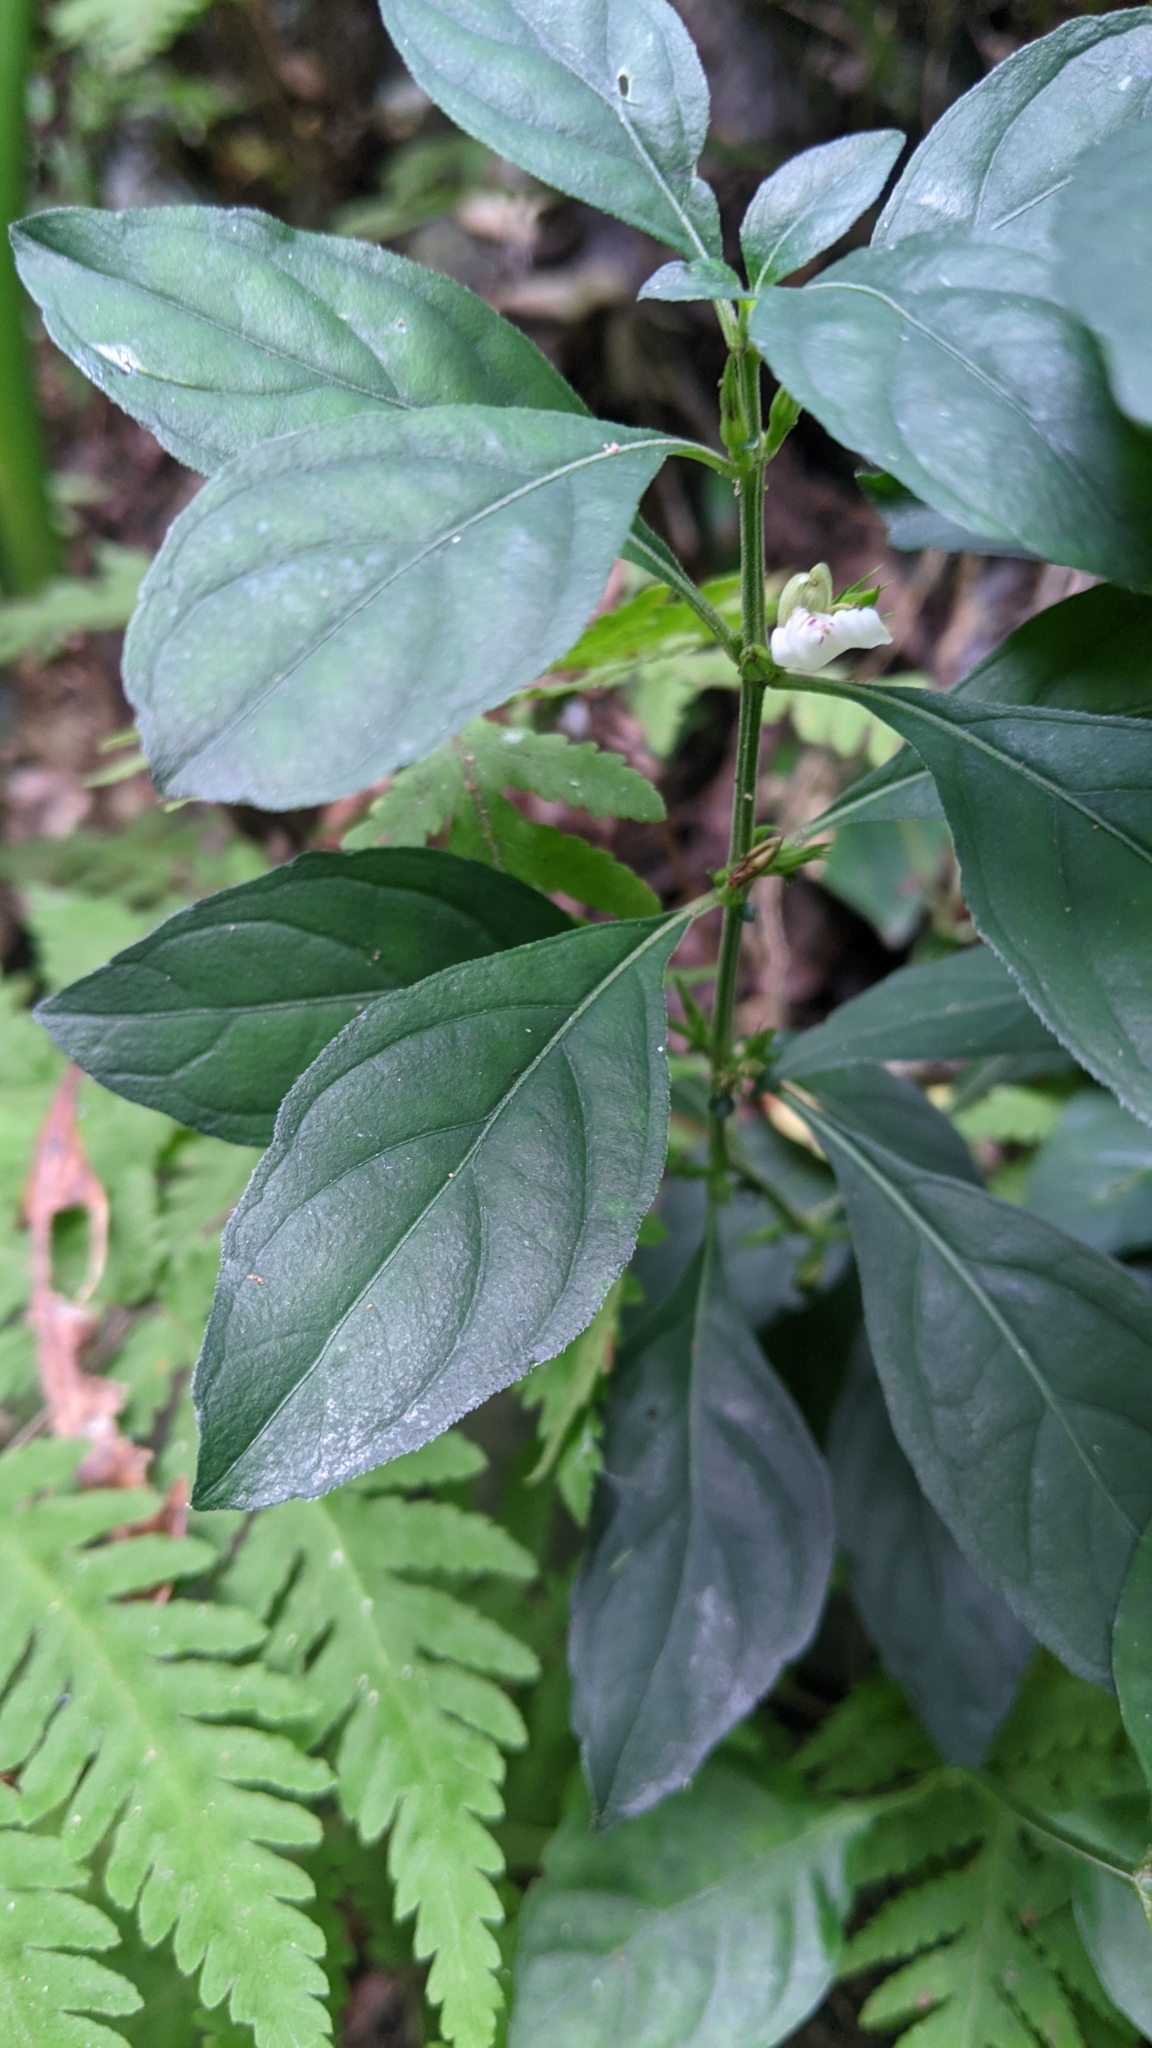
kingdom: Plantae
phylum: Tracheophyta
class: Magnoliopsida
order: Lamiales
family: Acanthaceae
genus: Justicia
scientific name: Justicia quadrifaria
